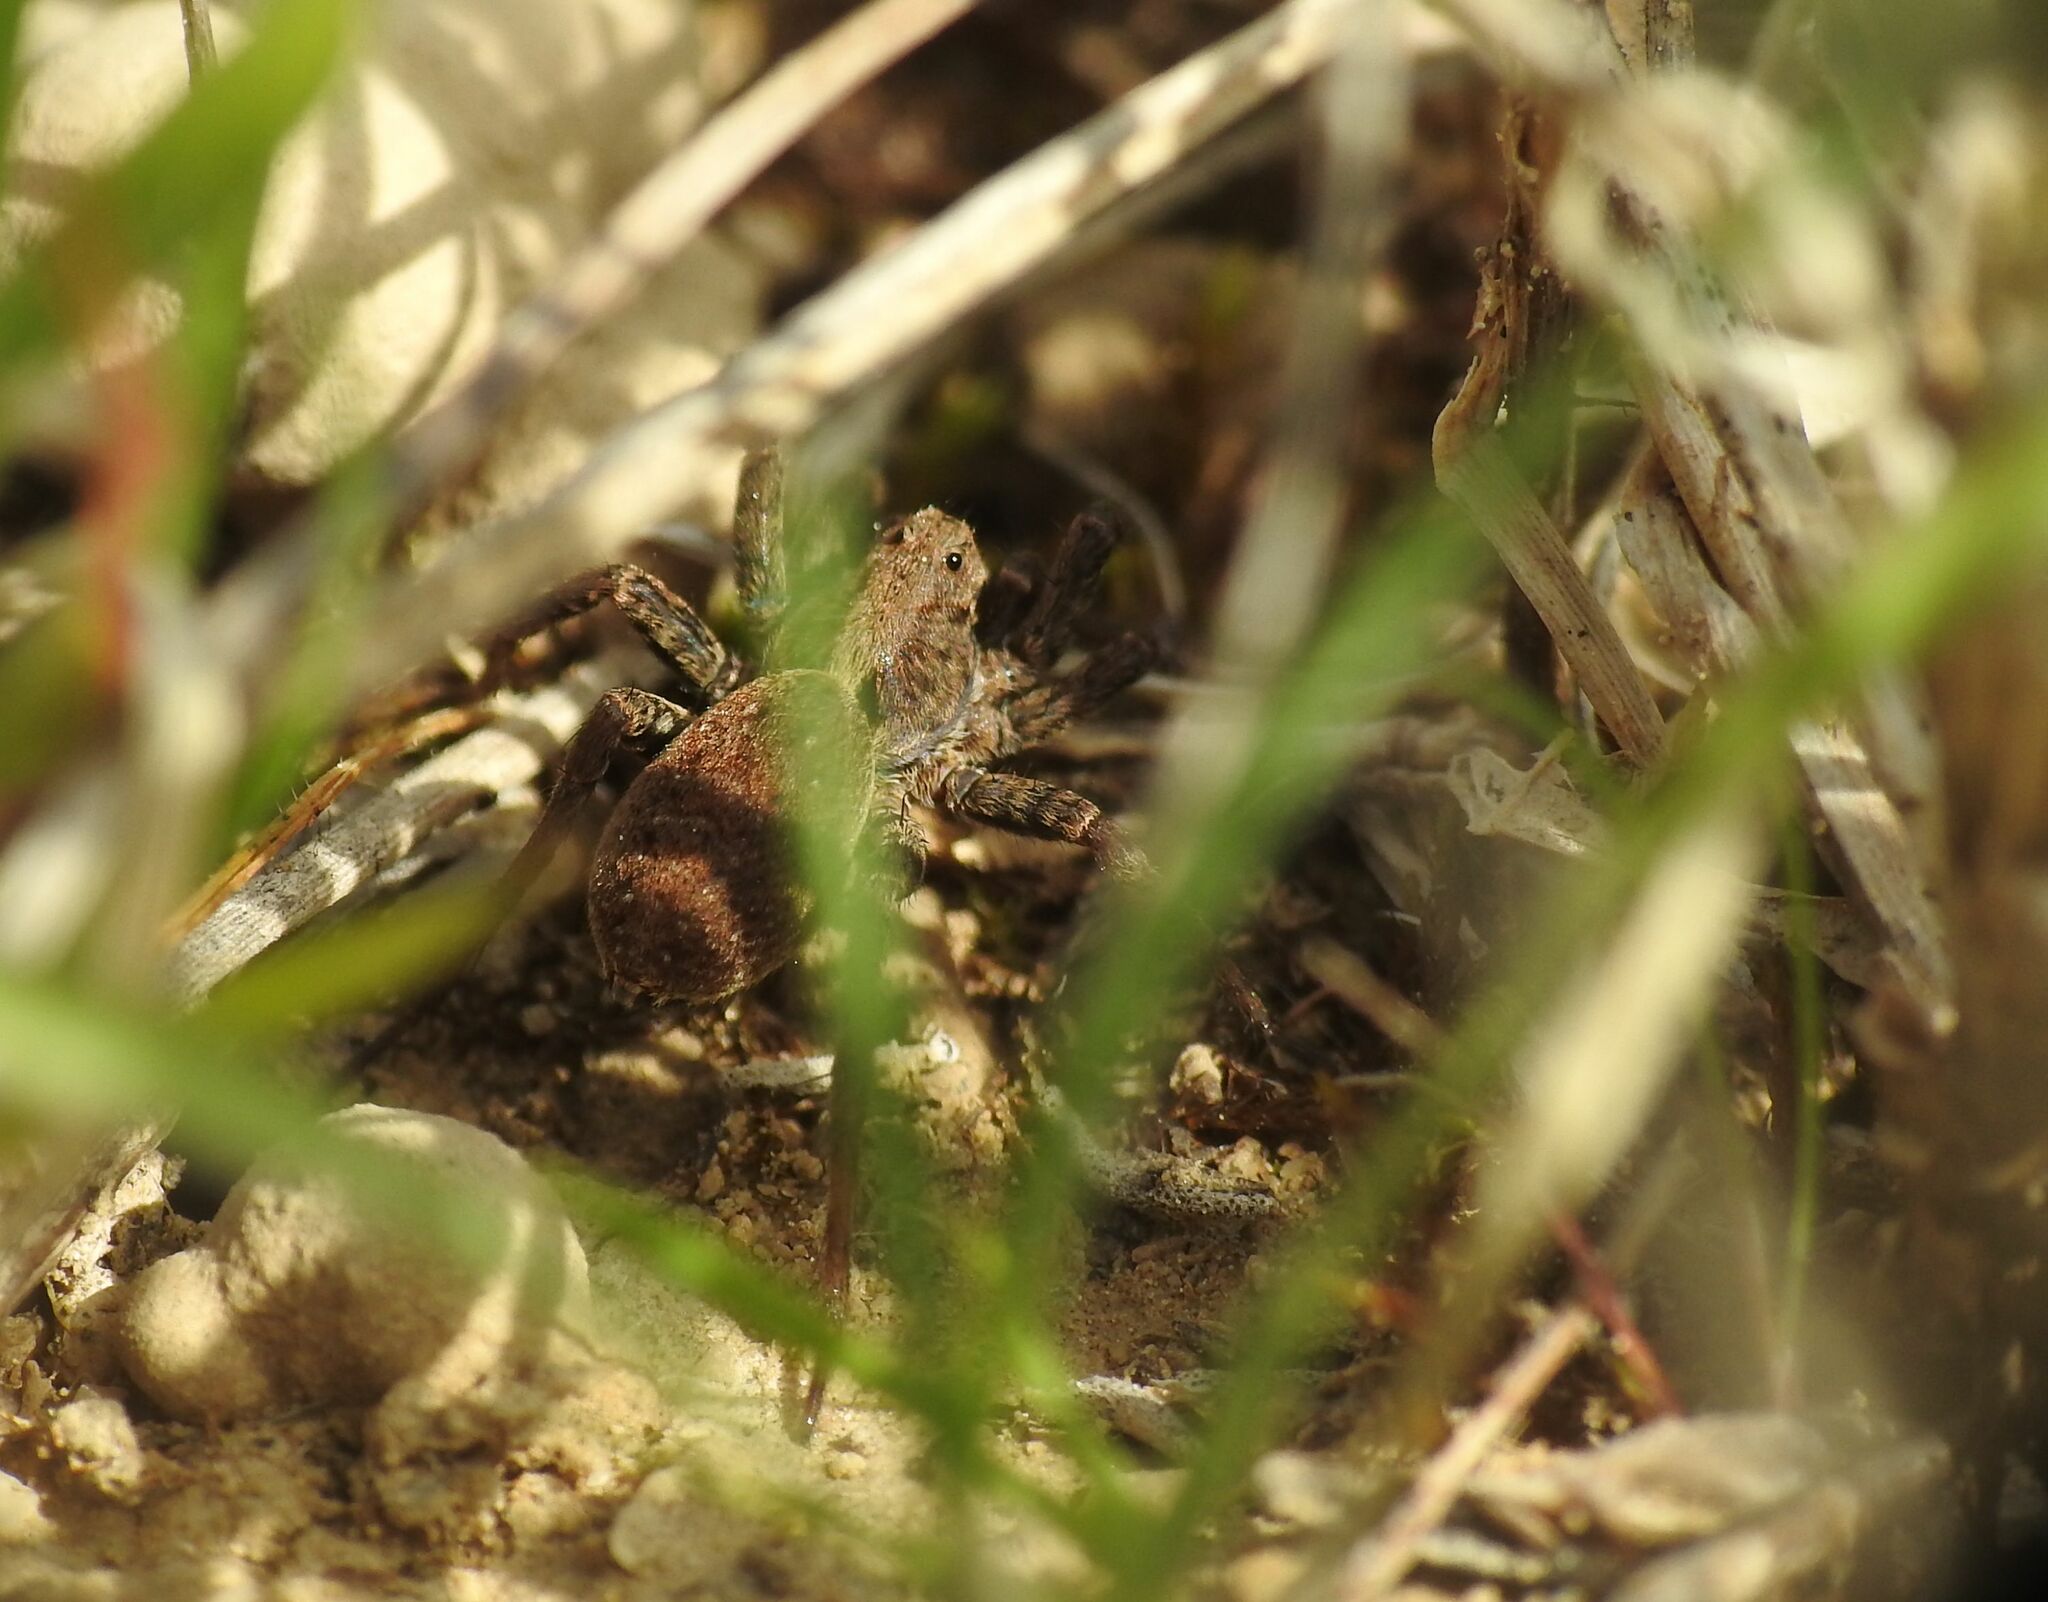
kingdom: Animalia
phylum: Arthropoda
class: Arachnida
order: Araneae
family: Lycosidae
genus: Alopecosa
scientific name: Alopecosa albofasciata
